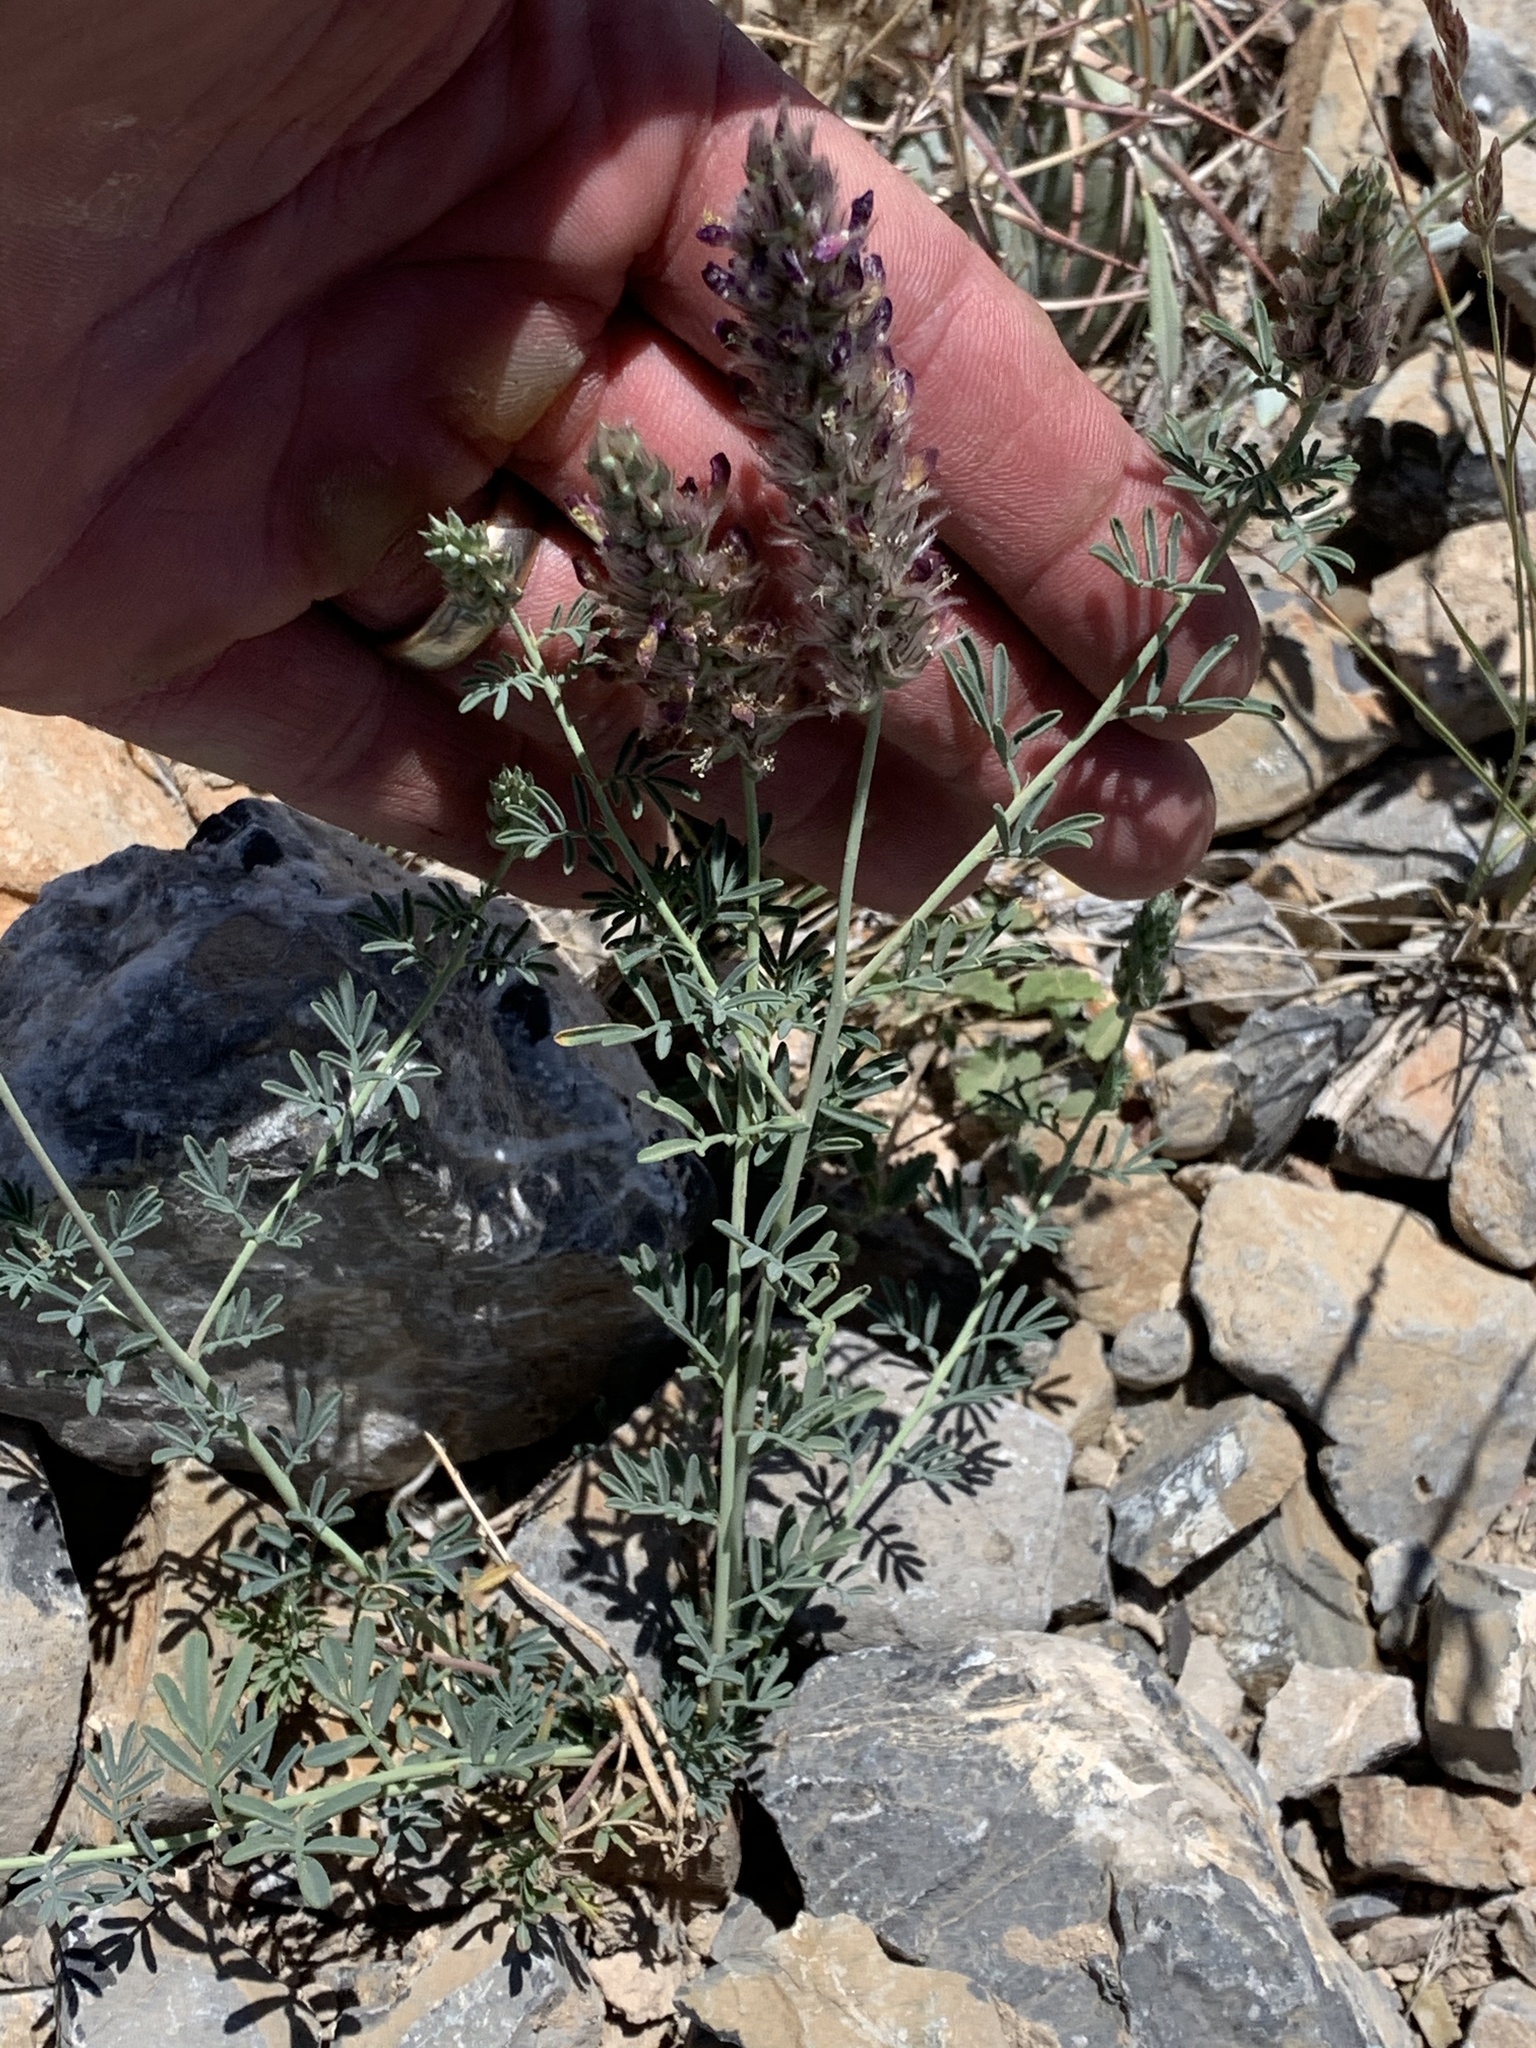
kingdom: Plantae
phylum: Tracheophyta
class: Magnoliopsida
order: Fabales
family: Fabaceae
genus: Dalea
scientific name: Dalea pogonathera
